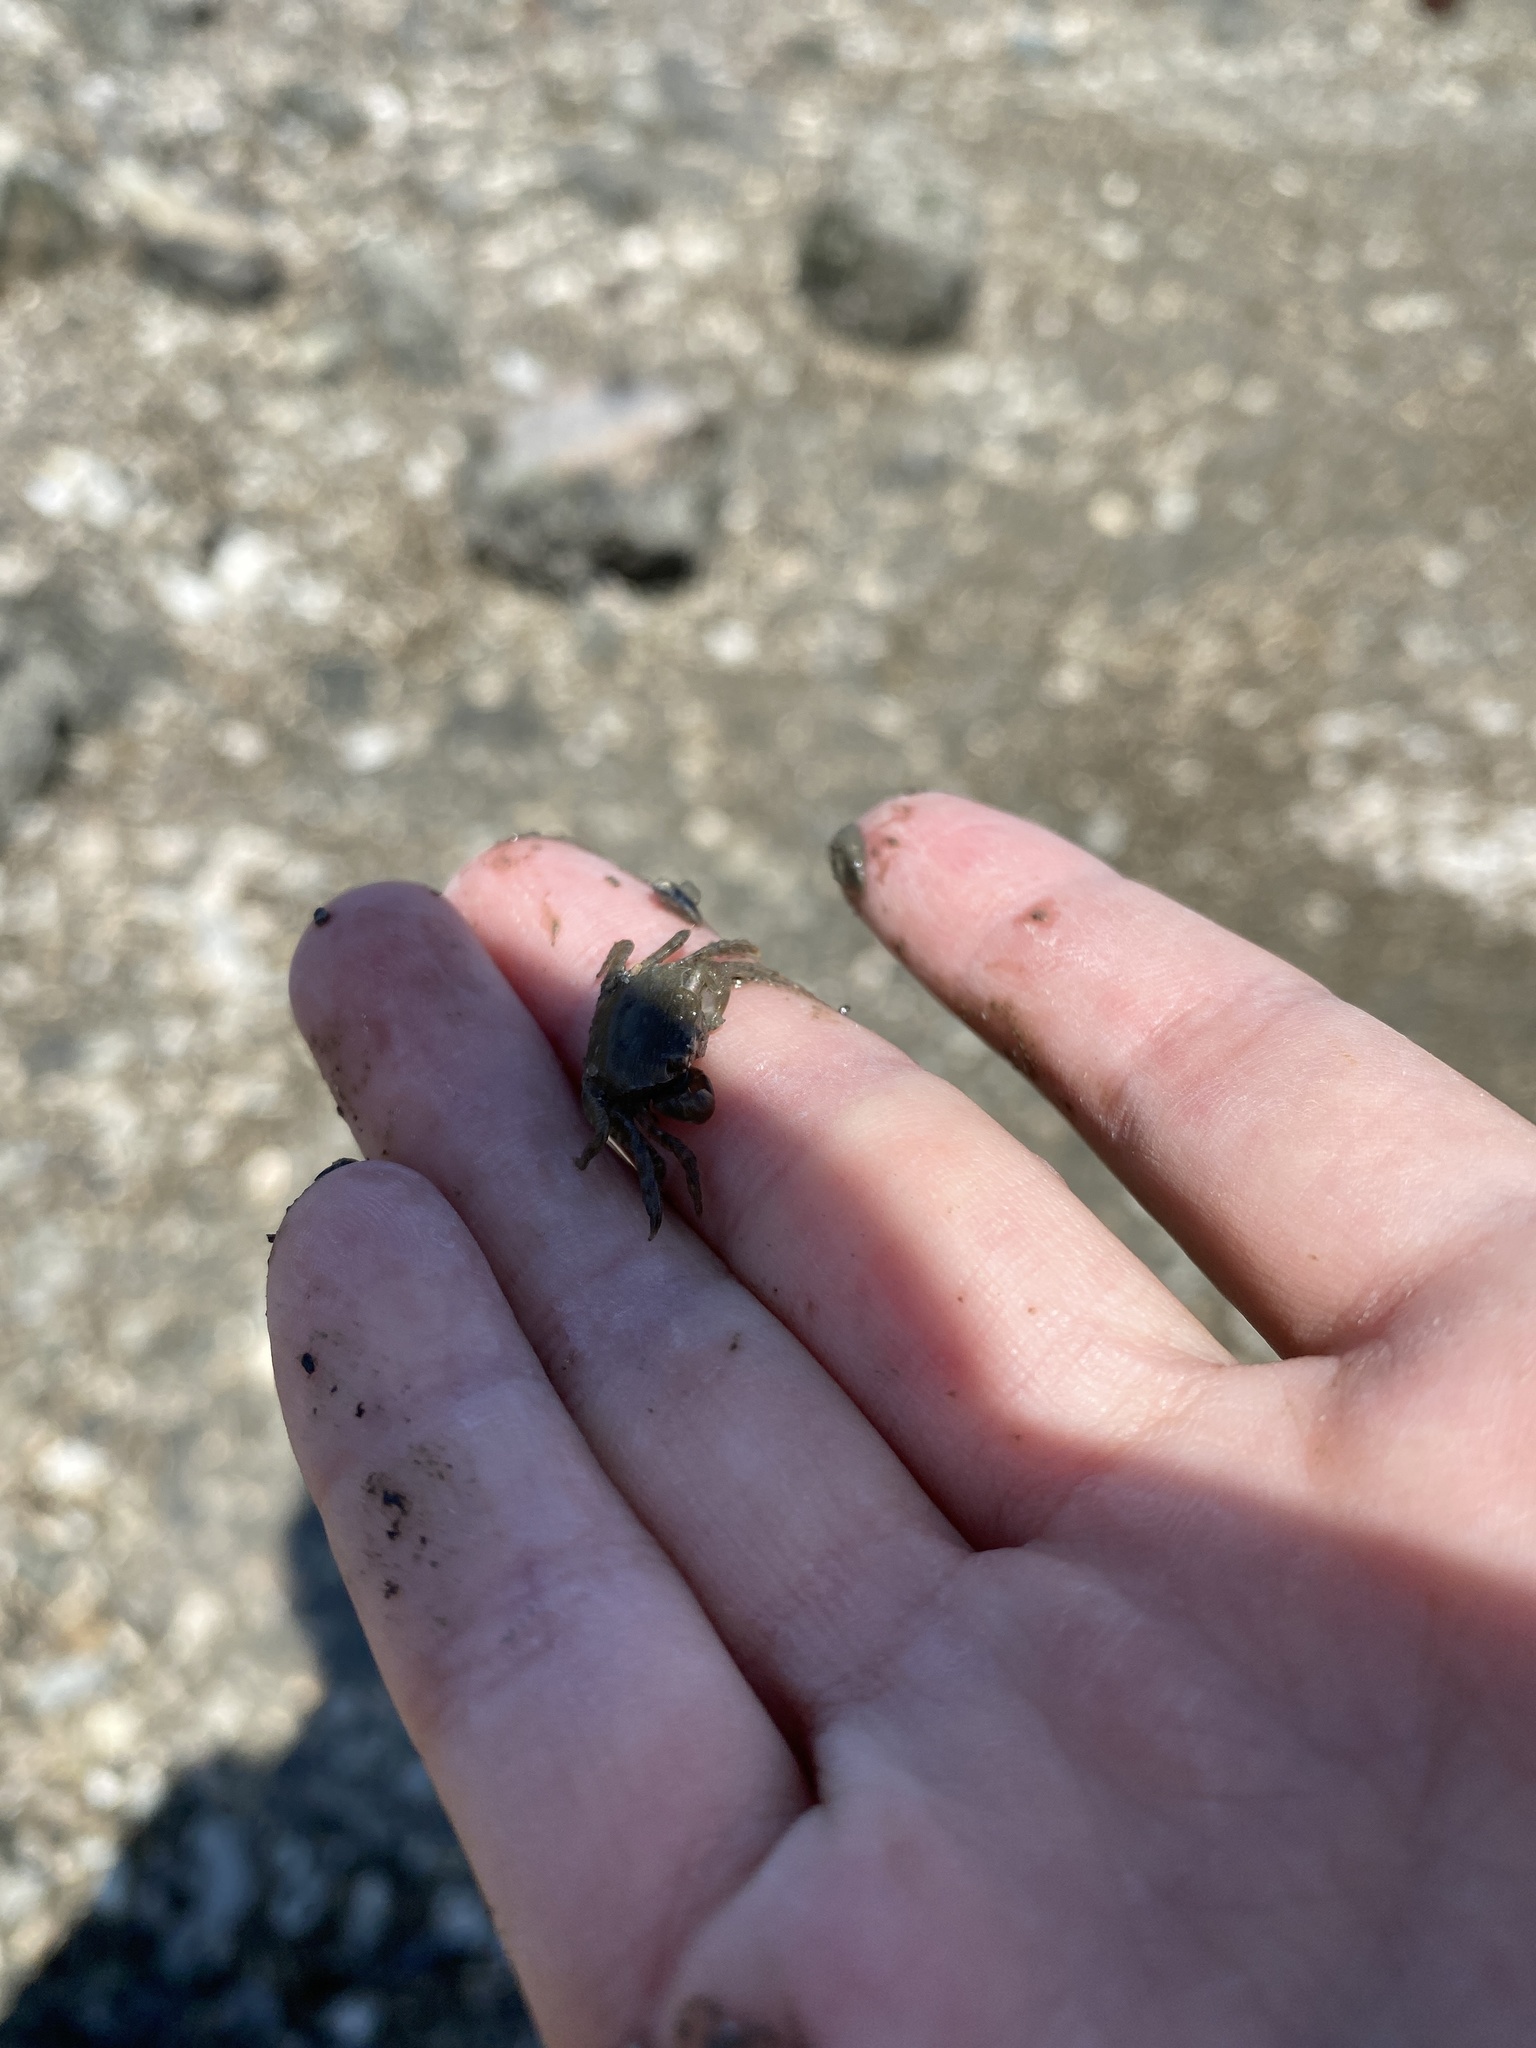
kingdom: Animalia
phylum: Arthropoda
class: Malacostraca
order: Decapoda
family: Varunidae
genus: Hemigrapsus
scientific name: Hemigrapsus oregonensis
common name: Yellow shore crab
